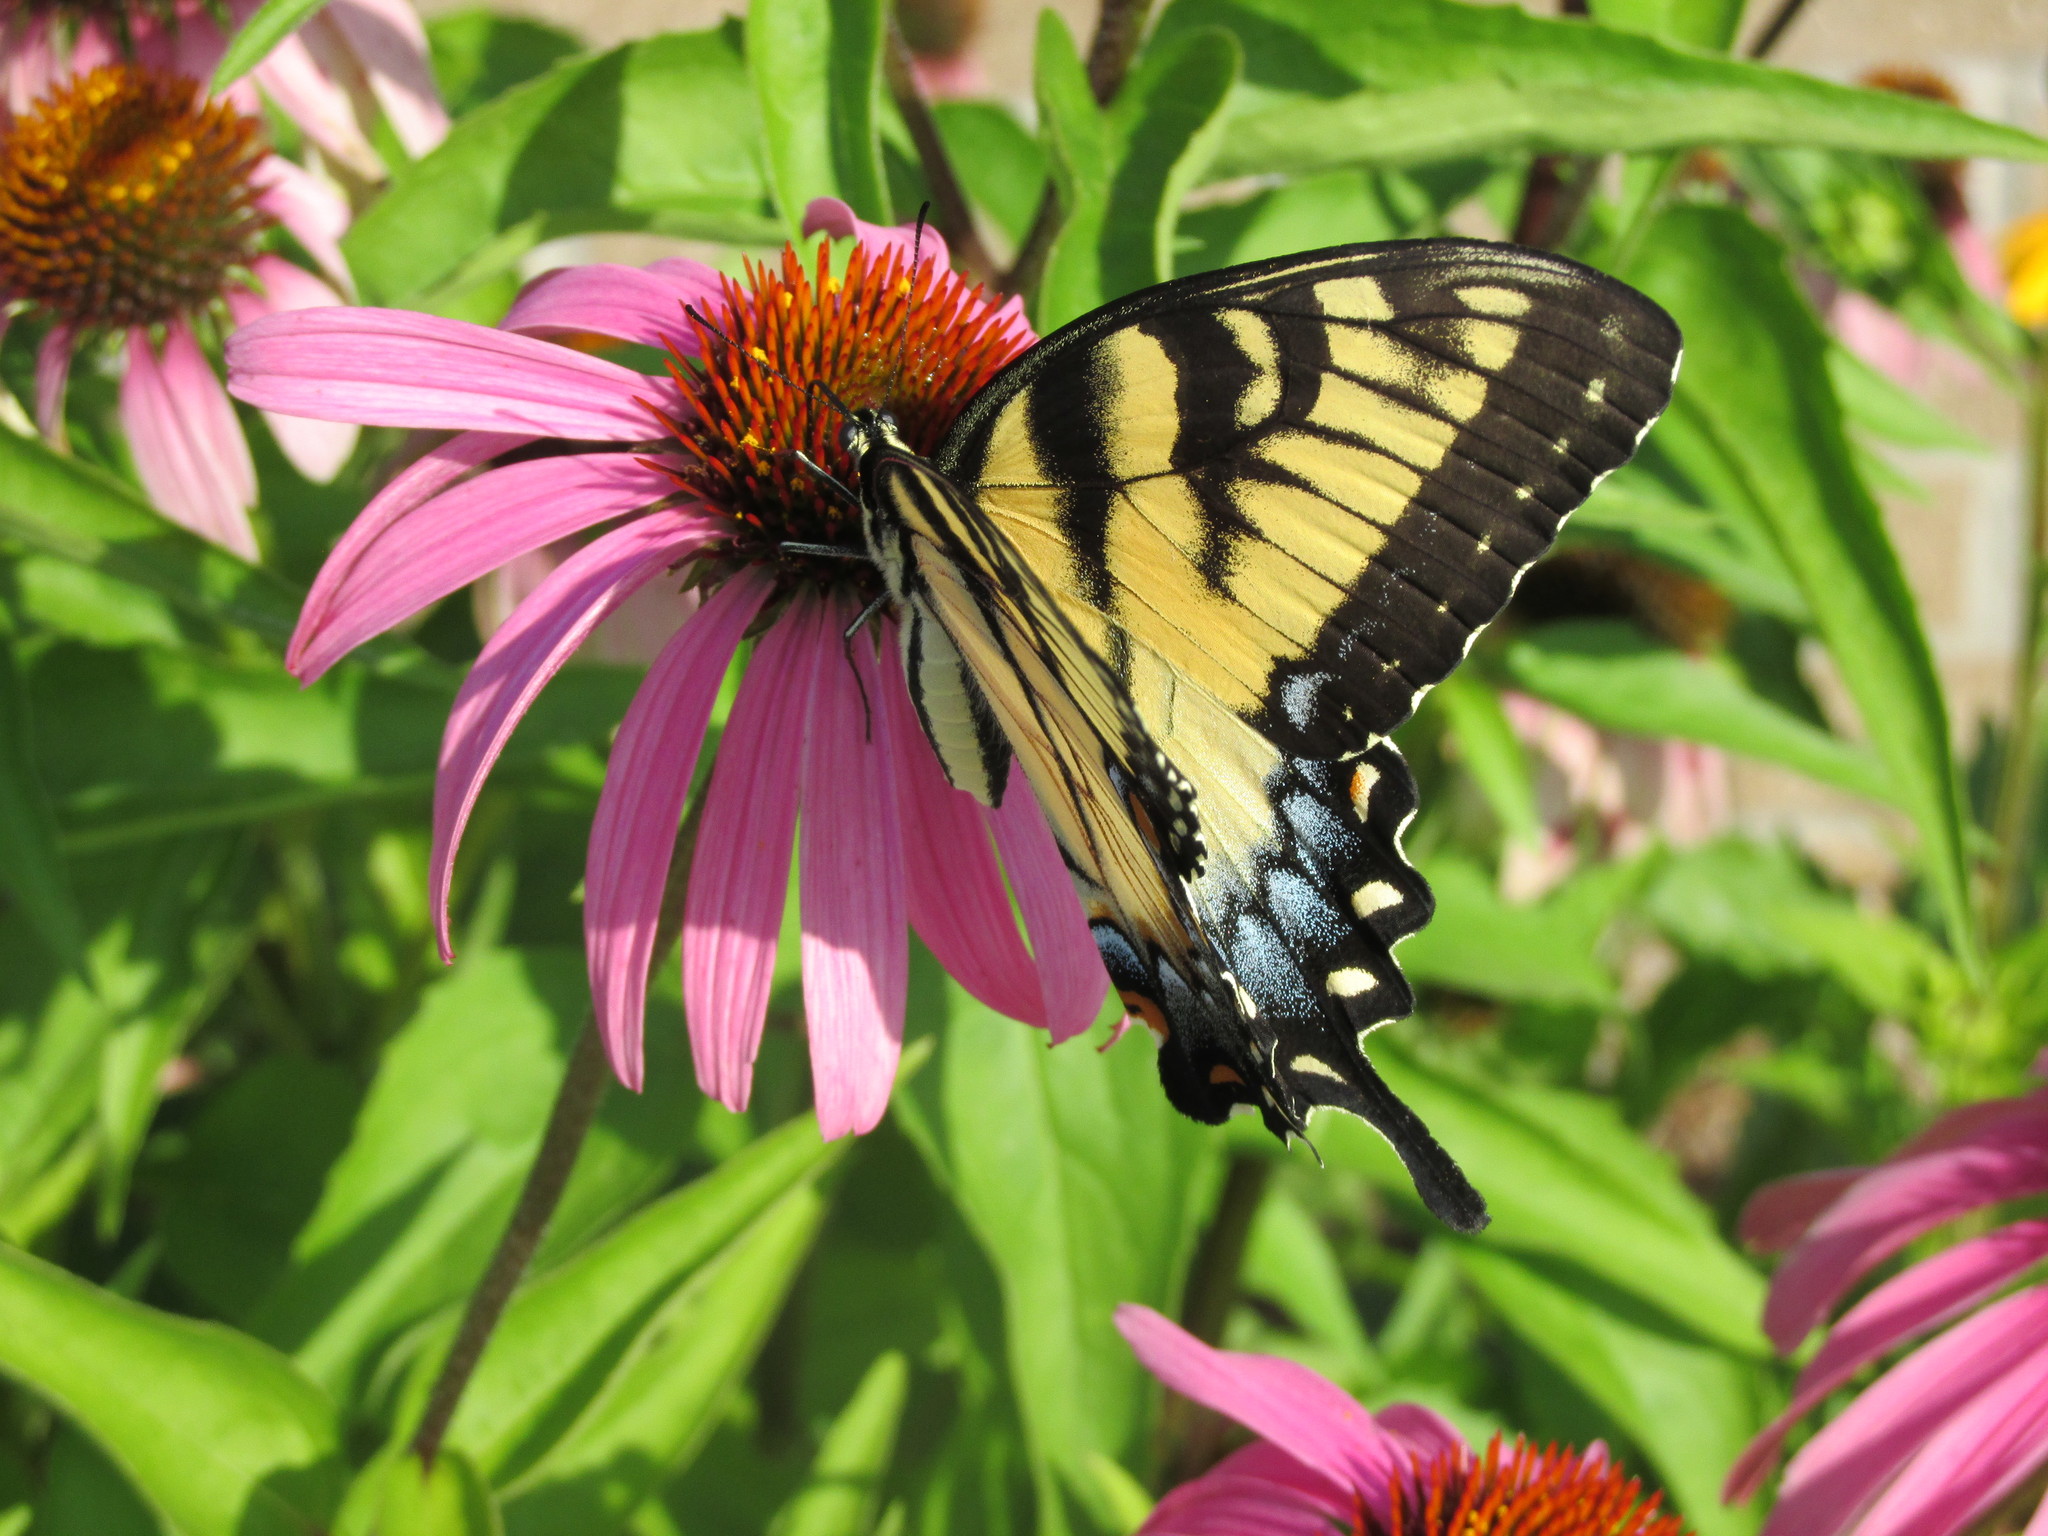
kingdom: Animalia
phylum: Arthropoda
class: Insecta
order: Lepidoptera
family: Papilionidae
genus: Papilio
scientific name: Papilio glaucus
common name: Tiger swallowtail
